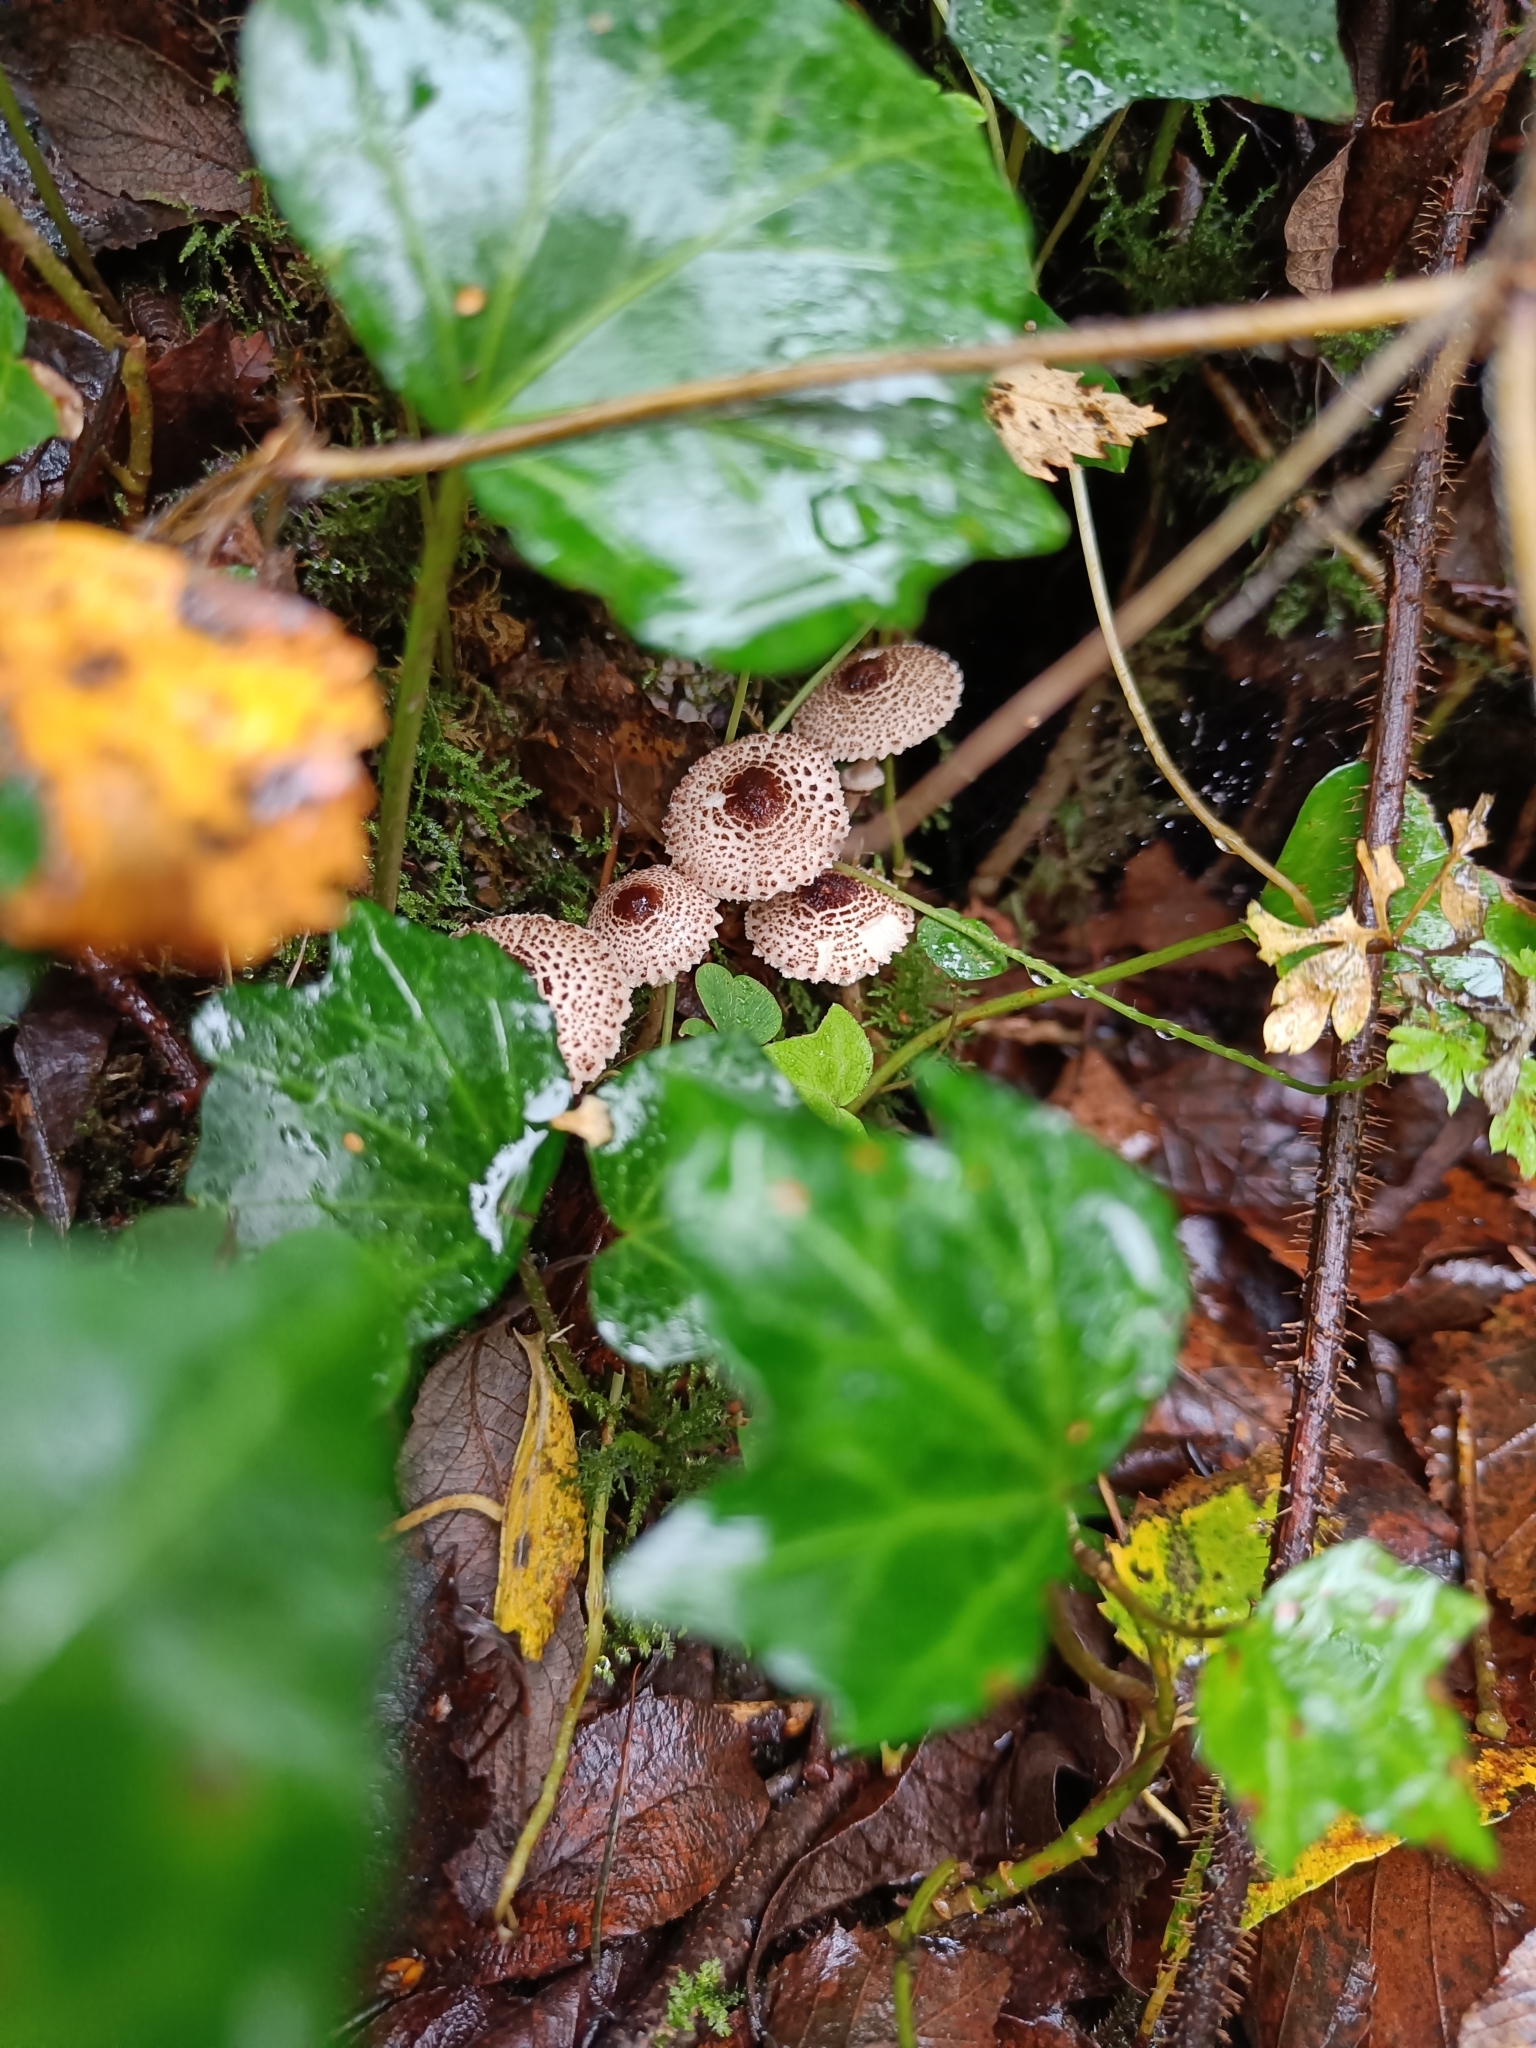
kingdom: Fungi
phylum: Basidiomycota
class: Agaricomycetes
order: Agaricales
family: Agaricaceae
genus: Lepiota
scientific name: Lepiota felina
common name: Cat dapperling
